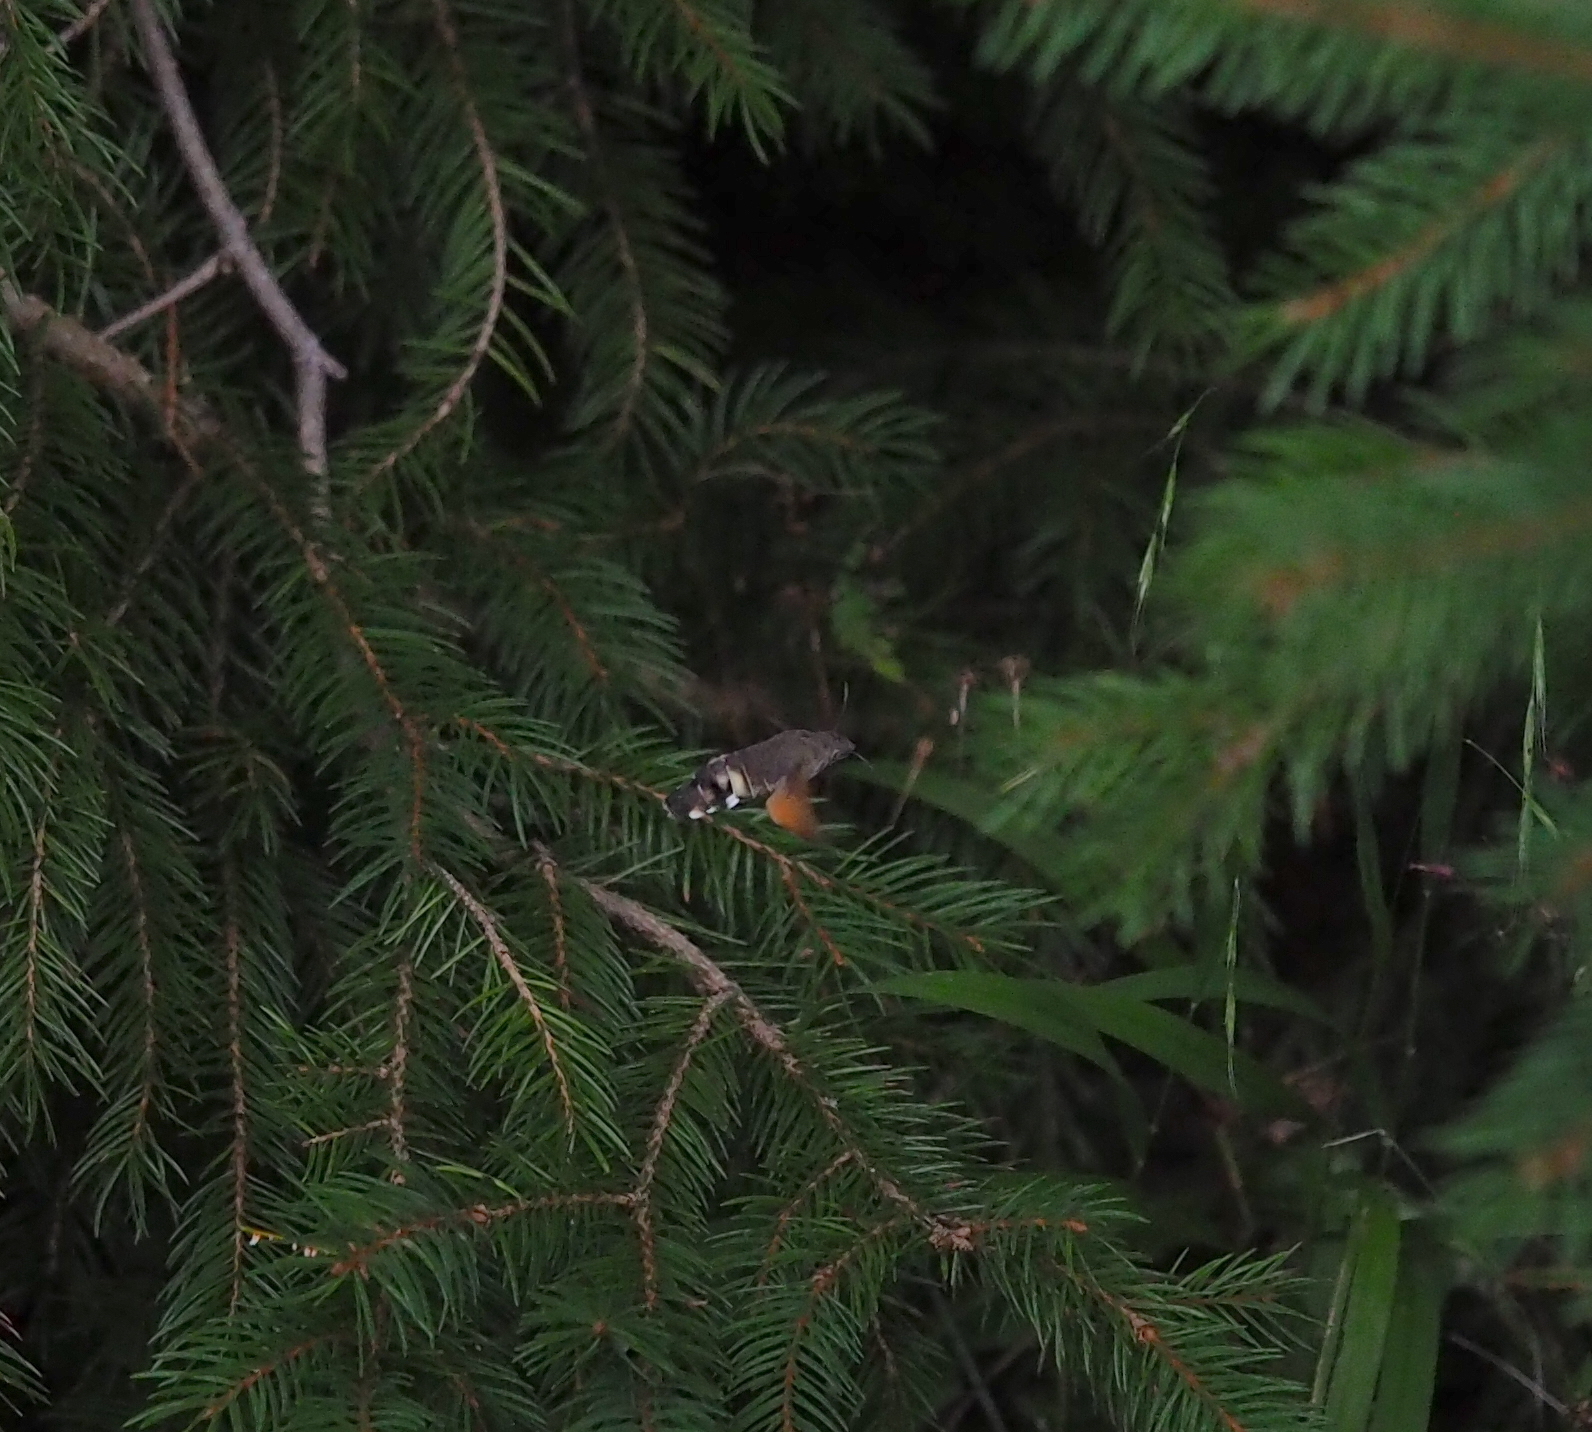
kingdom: Animalia
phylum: Arthropoda
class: Insecta
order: Lepidoptera
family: Sphingidae
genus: Macroglossum
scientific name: Macroglossum stellatarum
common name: Humming-bird hawk-moth
